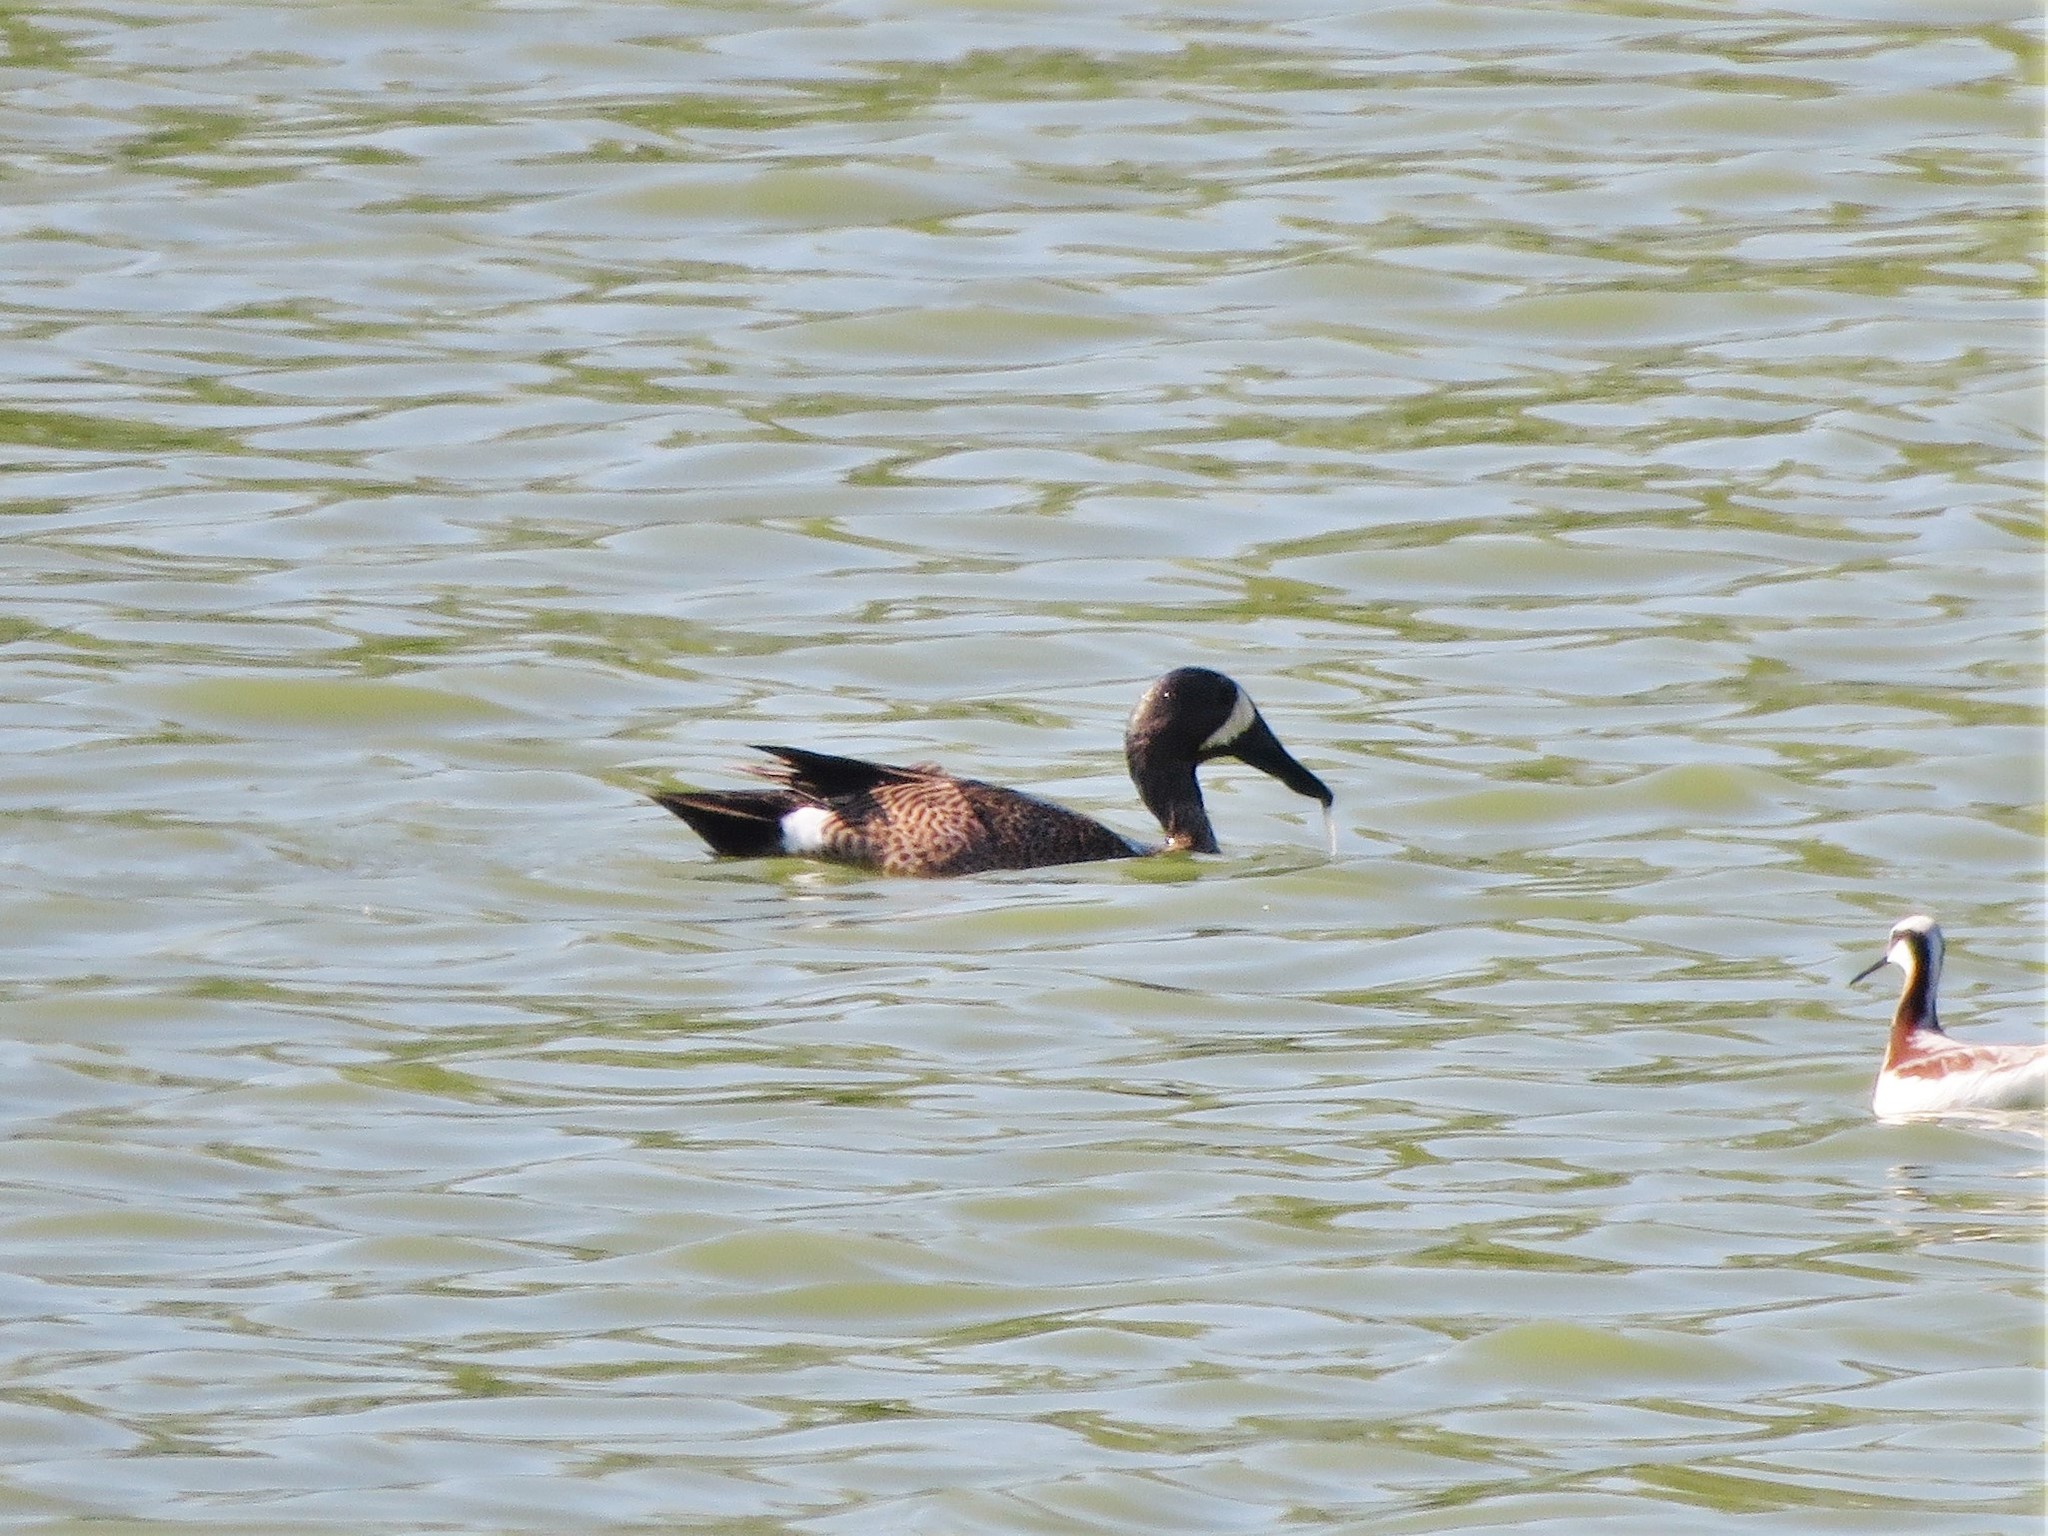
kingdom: Animalia
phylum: Chordata
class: Aves
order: Anseriformes
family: Anatidae
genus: Spatula
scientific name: Spatula discors
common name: Blue-winged teal
